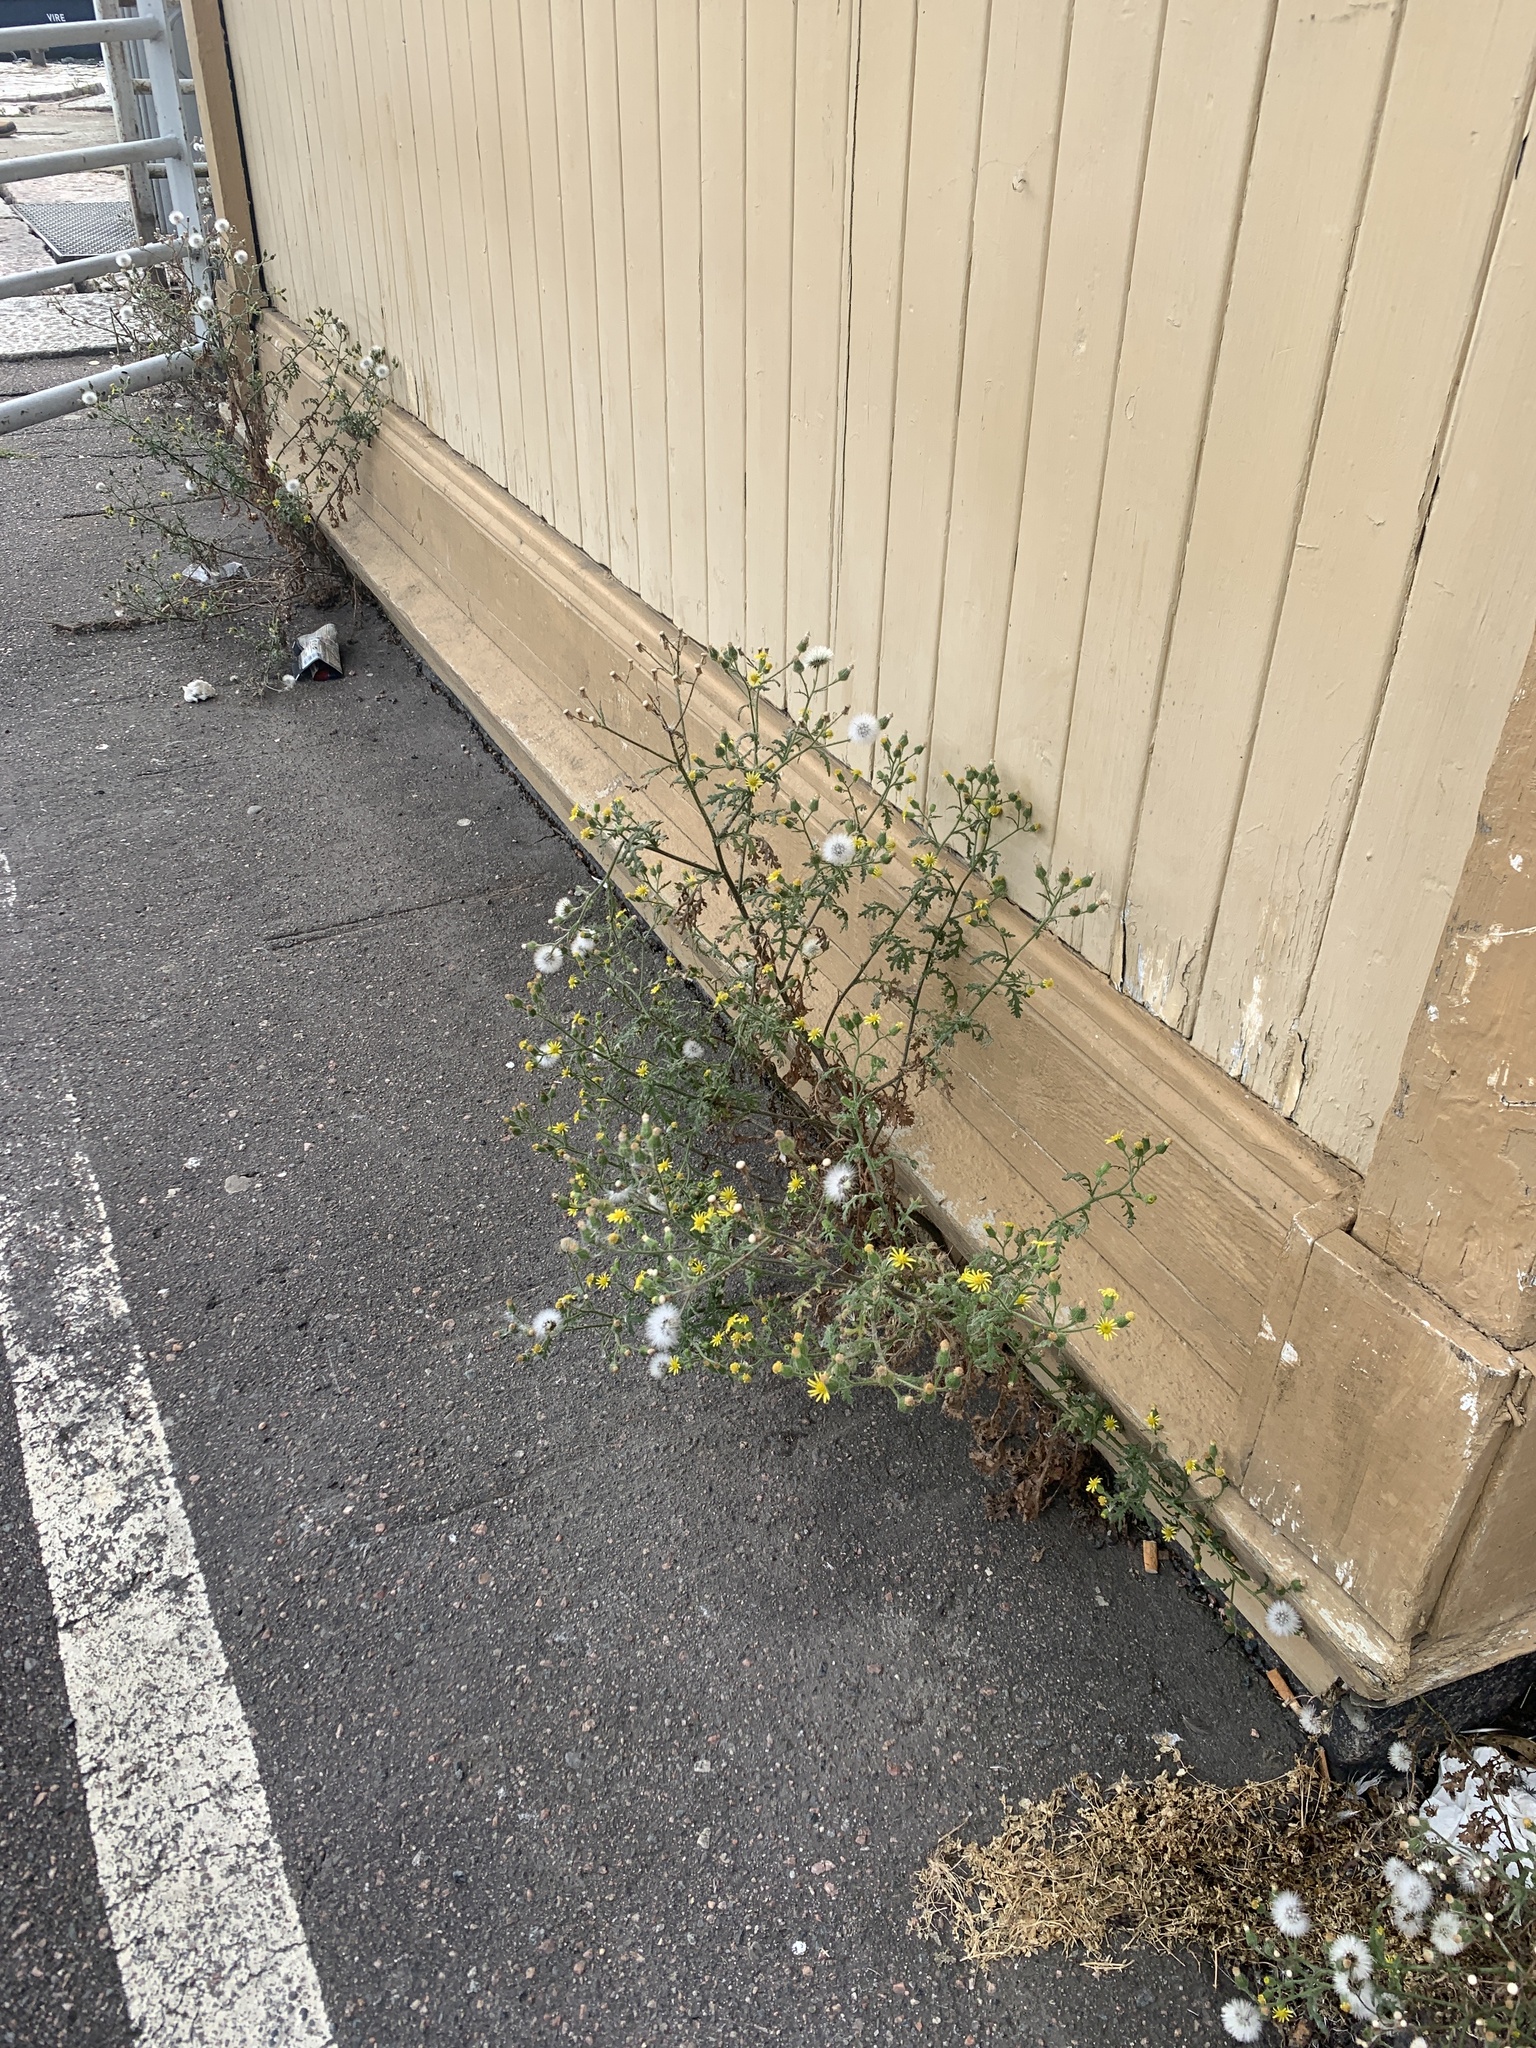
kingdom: Plantae
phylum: Tracheophyta
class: Magnoliopsida
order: Asterales
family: Asteraceae
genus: Senecio
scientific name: Senecio viscosus
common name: Sticky groundsel
